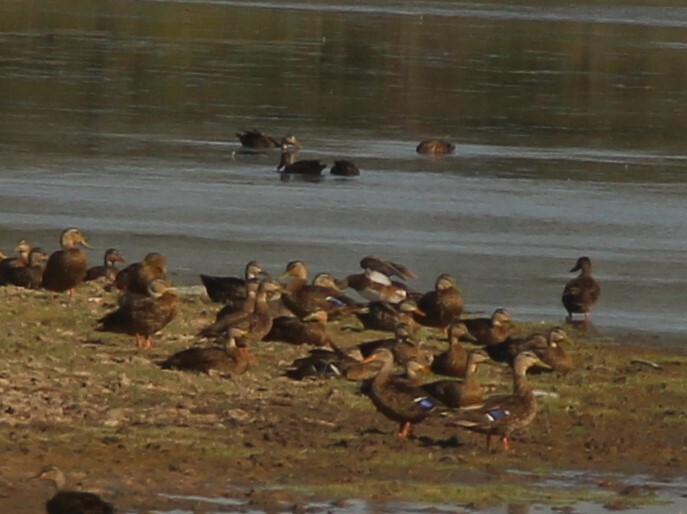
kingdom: Animalia
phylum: Chordata
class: Aves
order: Anseriformes
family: Anatidae
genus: Anas
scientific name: Anas diazi
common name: Mexican duck
